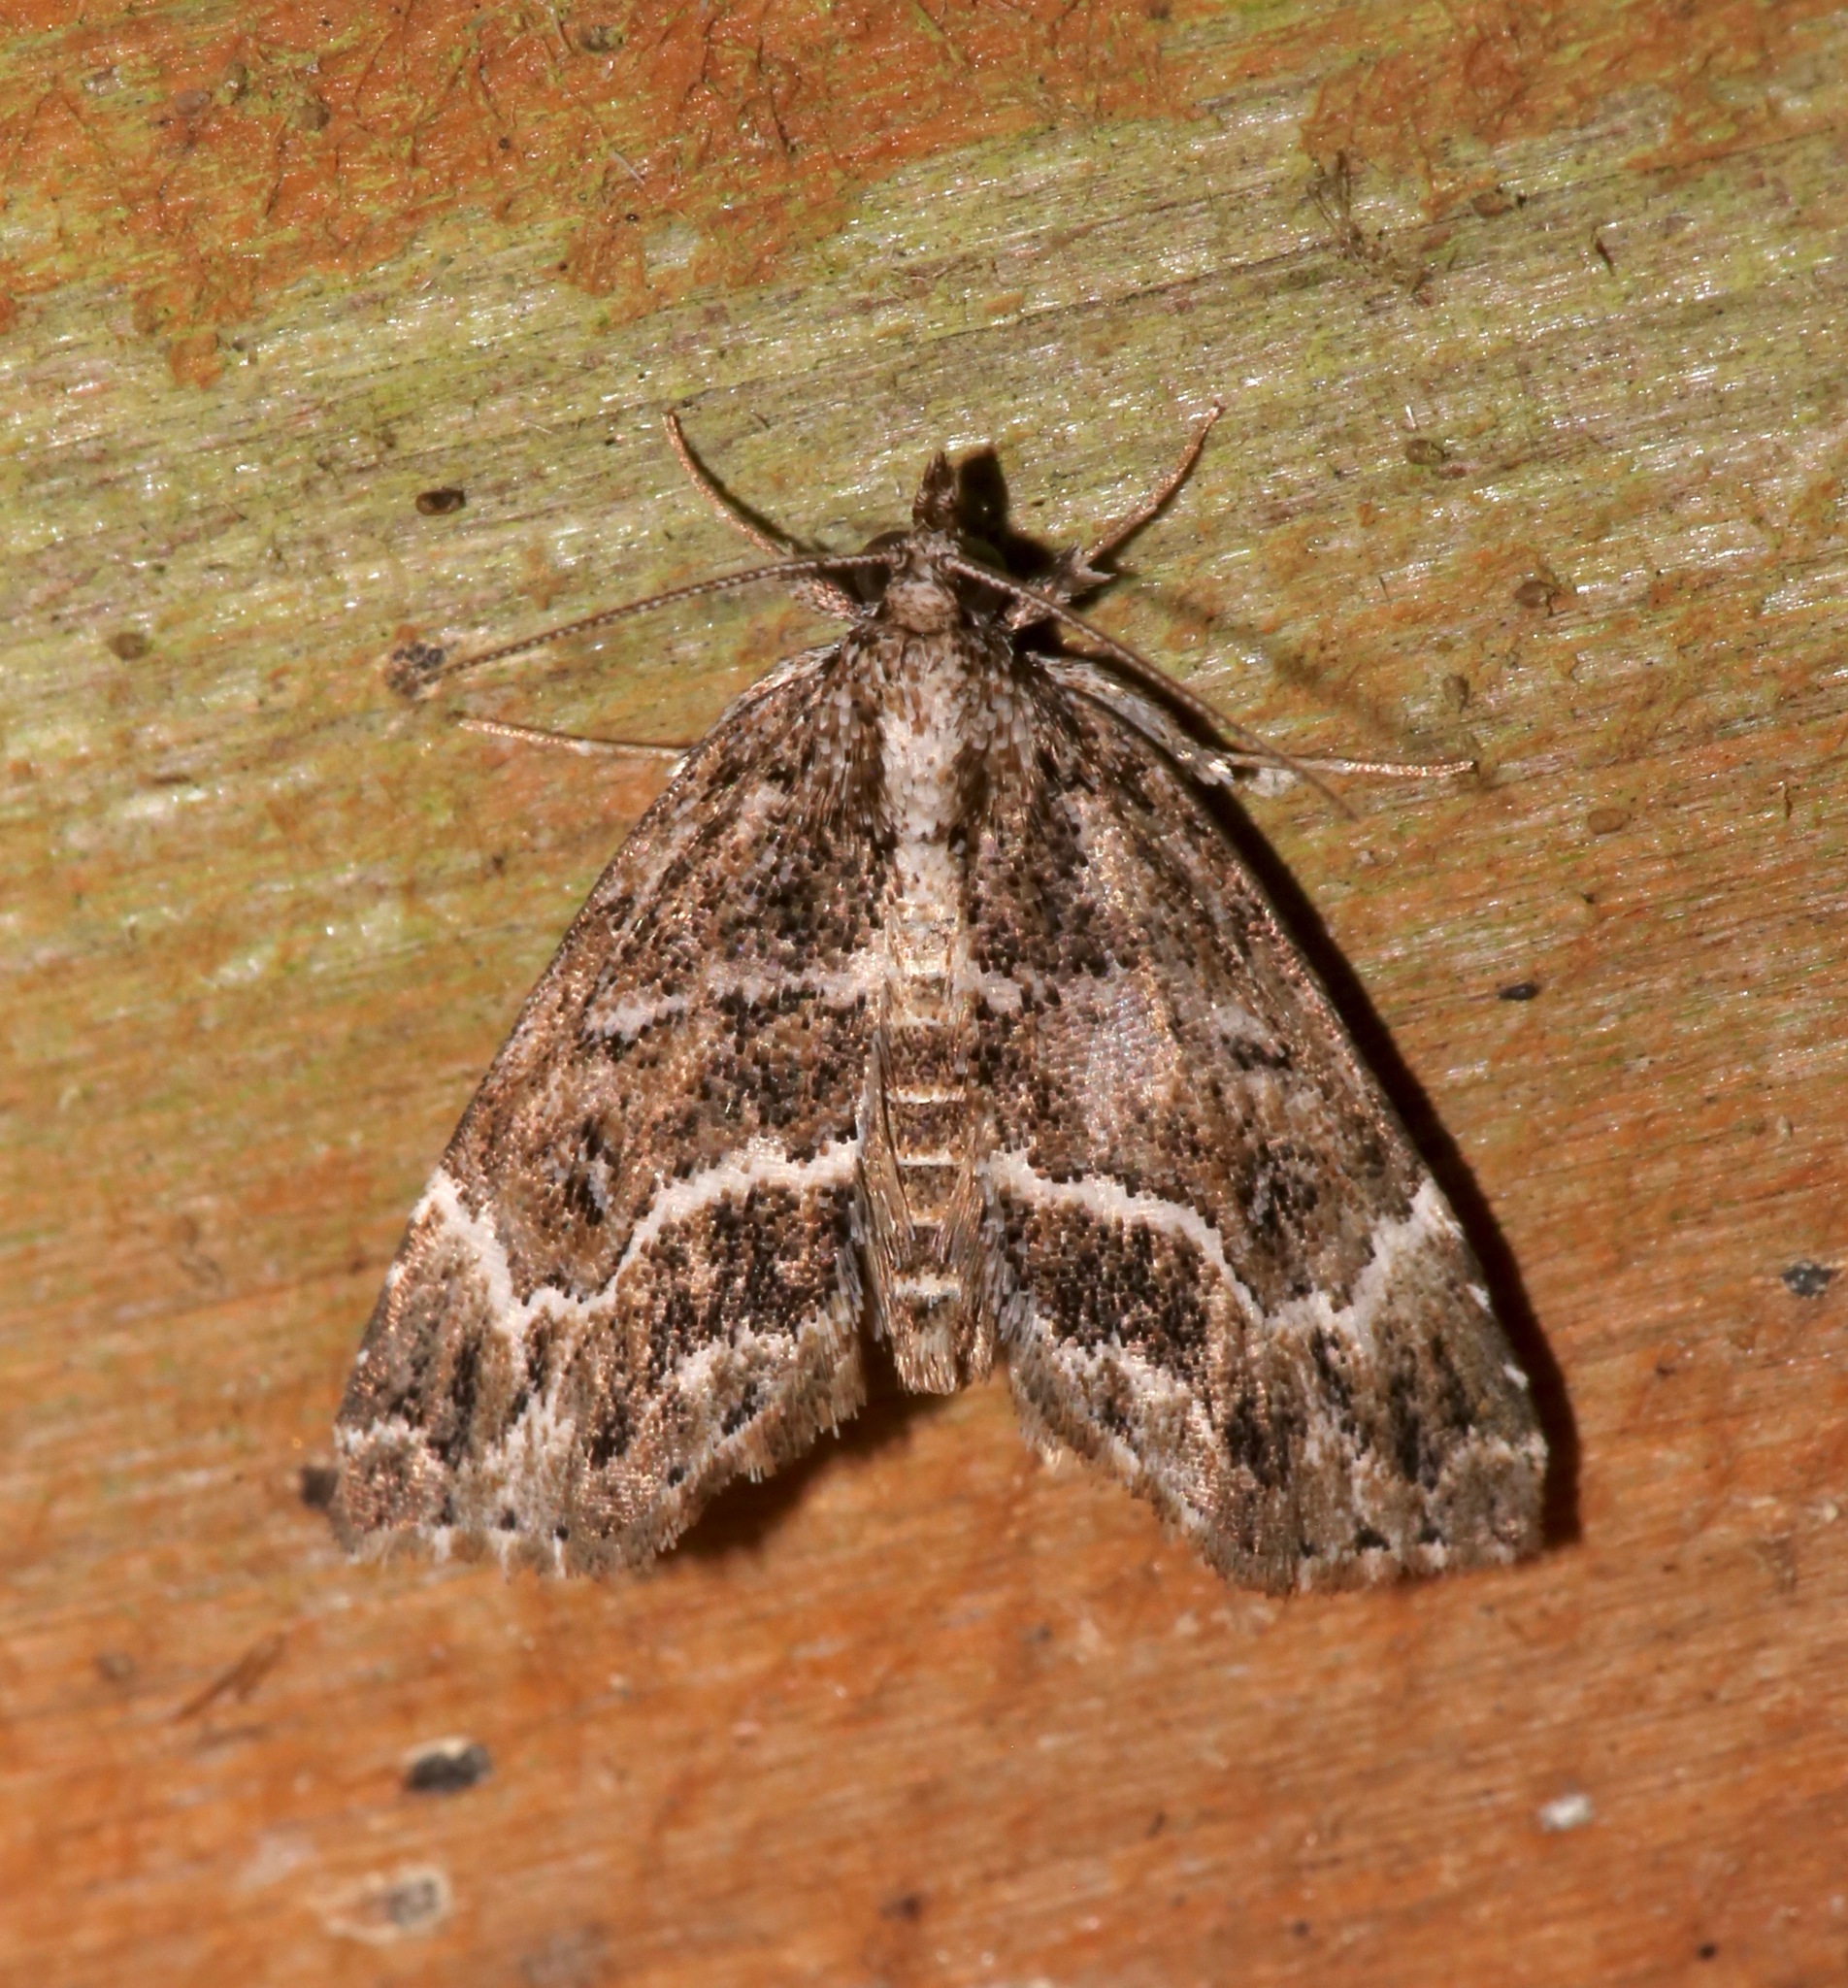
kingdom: Animalia
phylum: Arthropoda
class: Insecta
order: Lepidoptera
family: Erebidae
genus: Cutina
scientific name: Cutina arcuata
